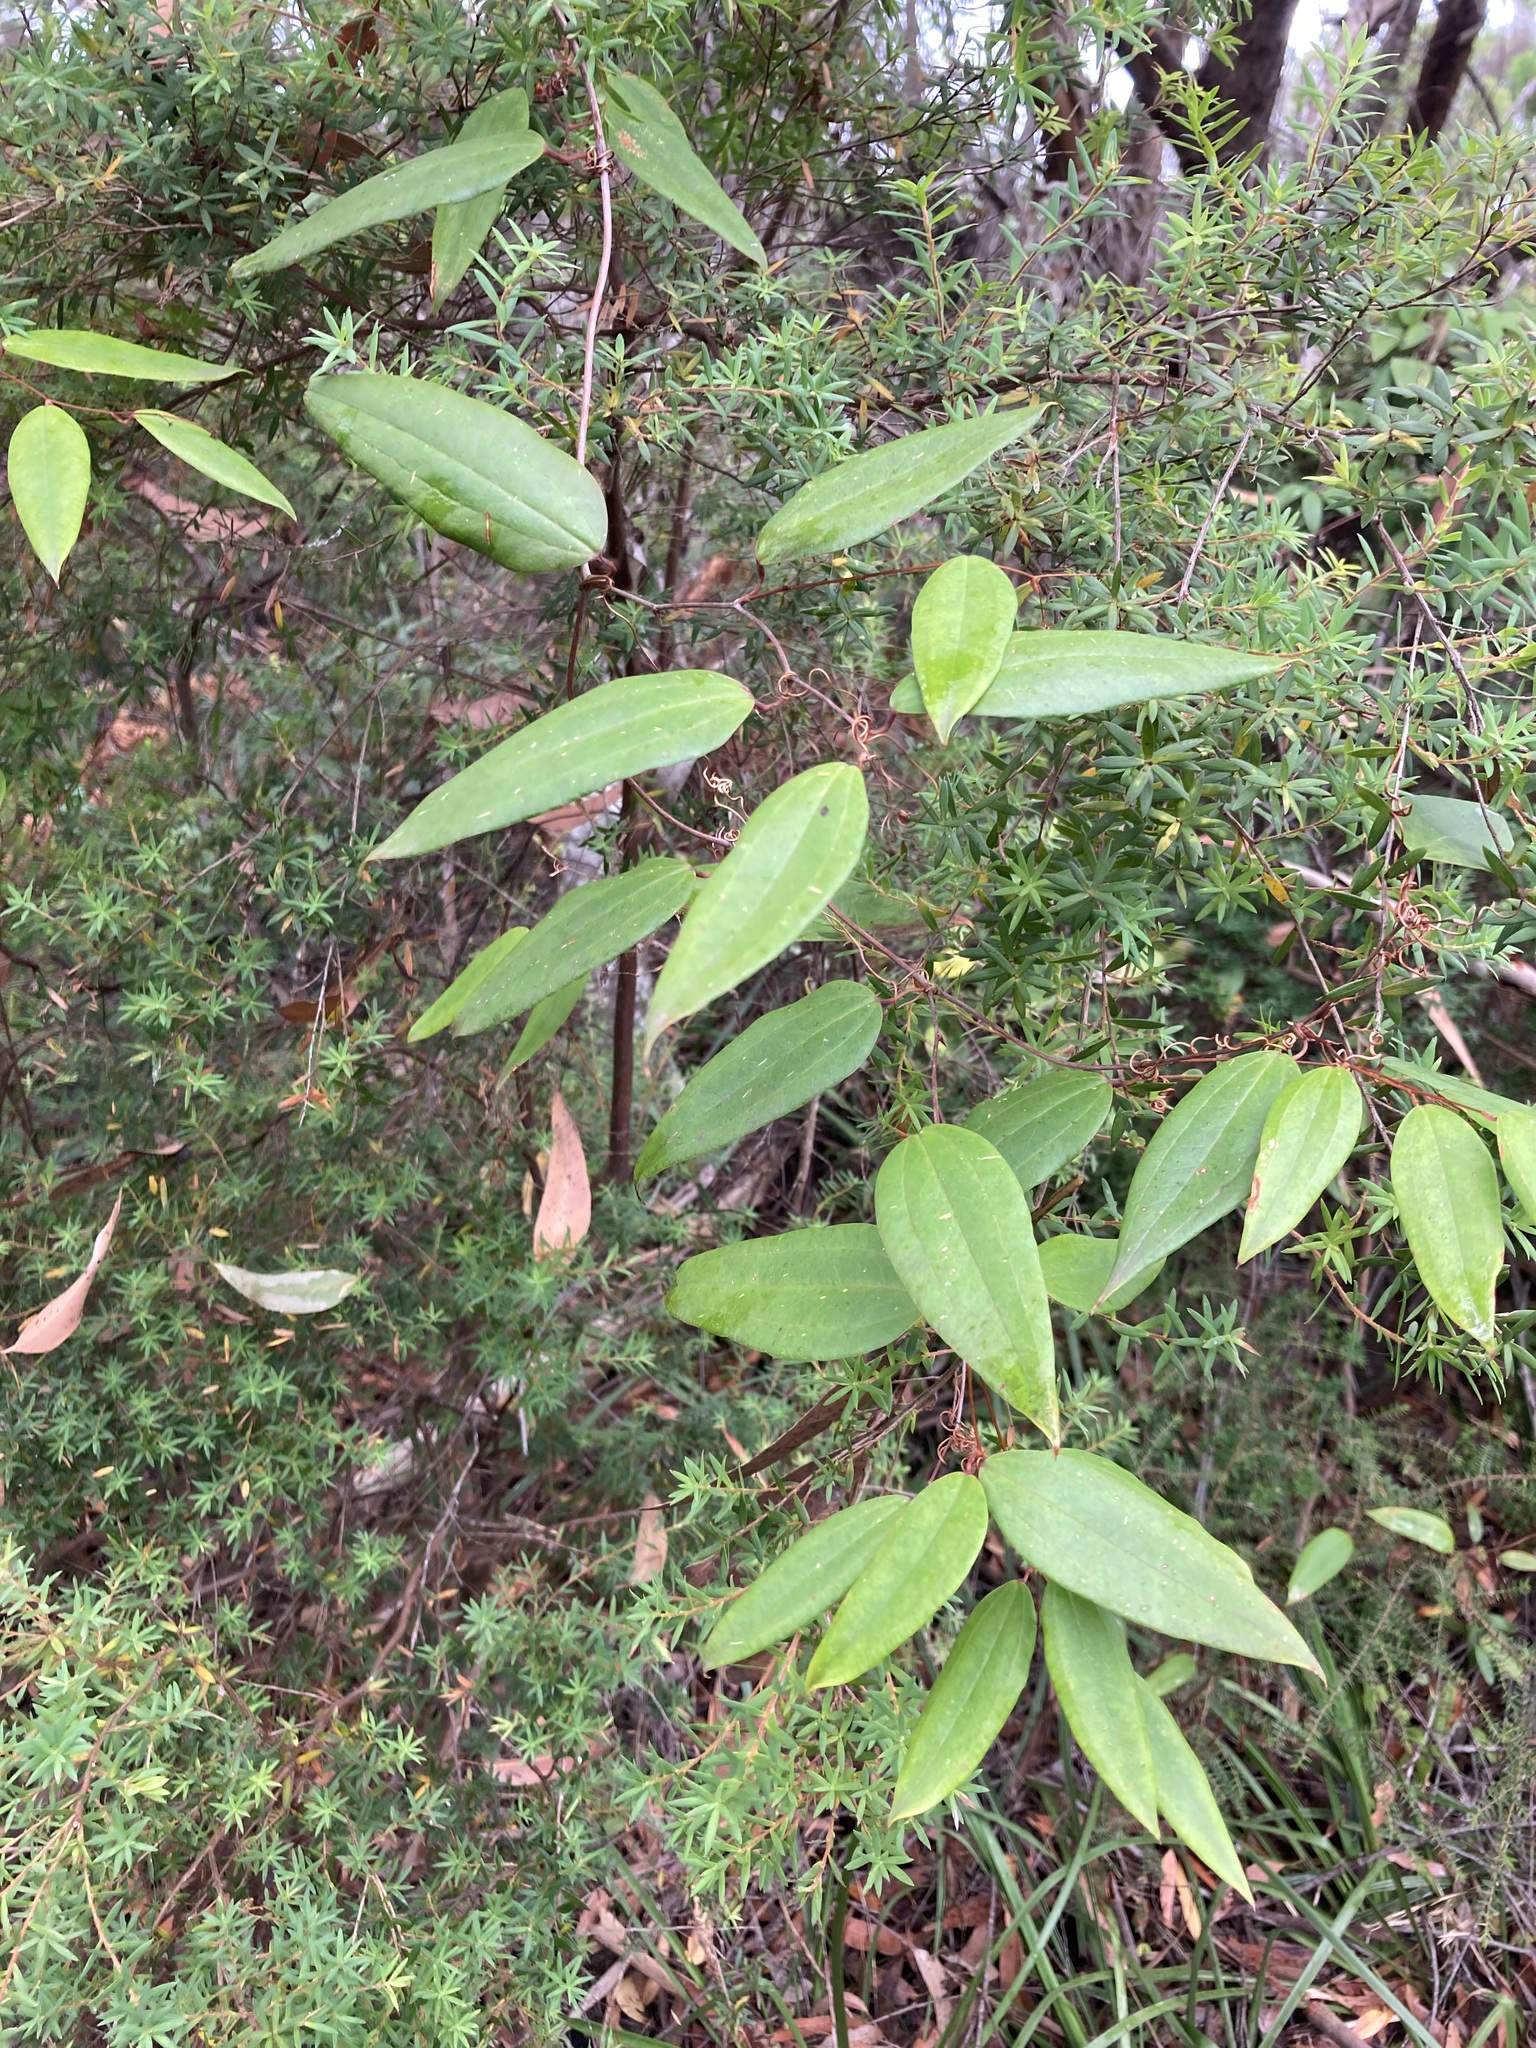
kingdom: Plantae
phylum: Tracheophyta
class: Liliopsida
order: Liliales
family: Smilacaceae
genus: Smilax
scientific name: Smilax glyciphylla
